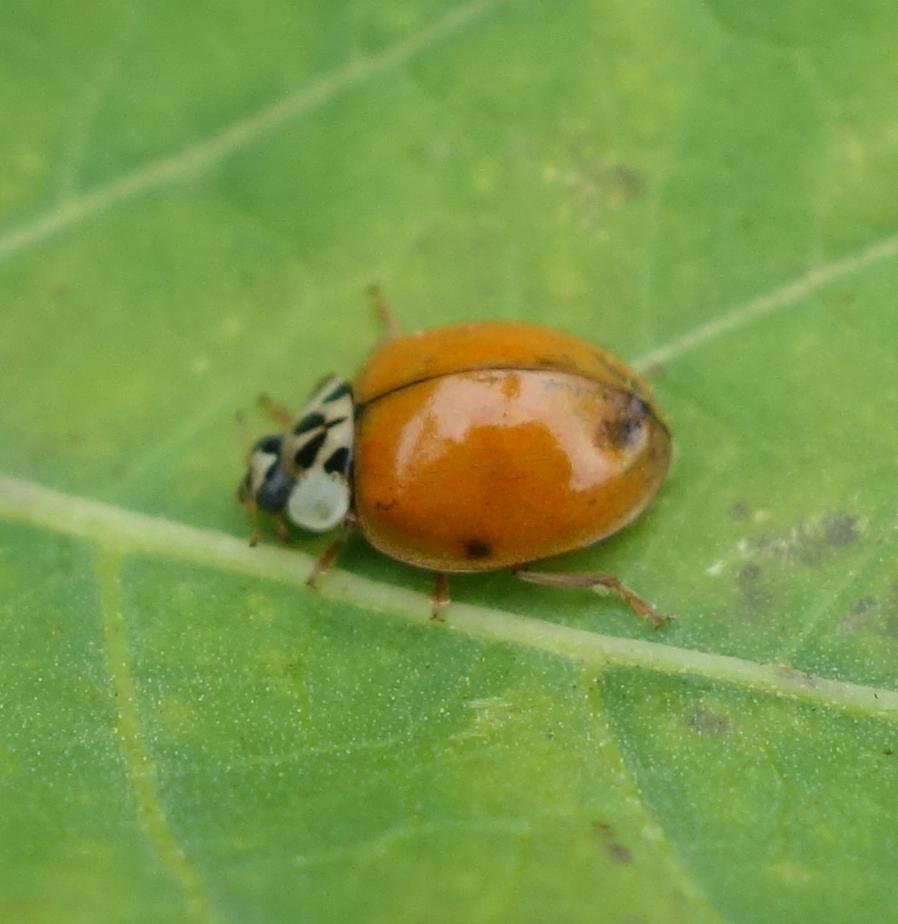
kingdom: Animalia
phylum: Arthropoda
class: Insecta
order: Coleoptera
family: Coccinellidae
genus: Harmonia
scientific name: Harmonia axyridis
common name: Harlequin ladybird
